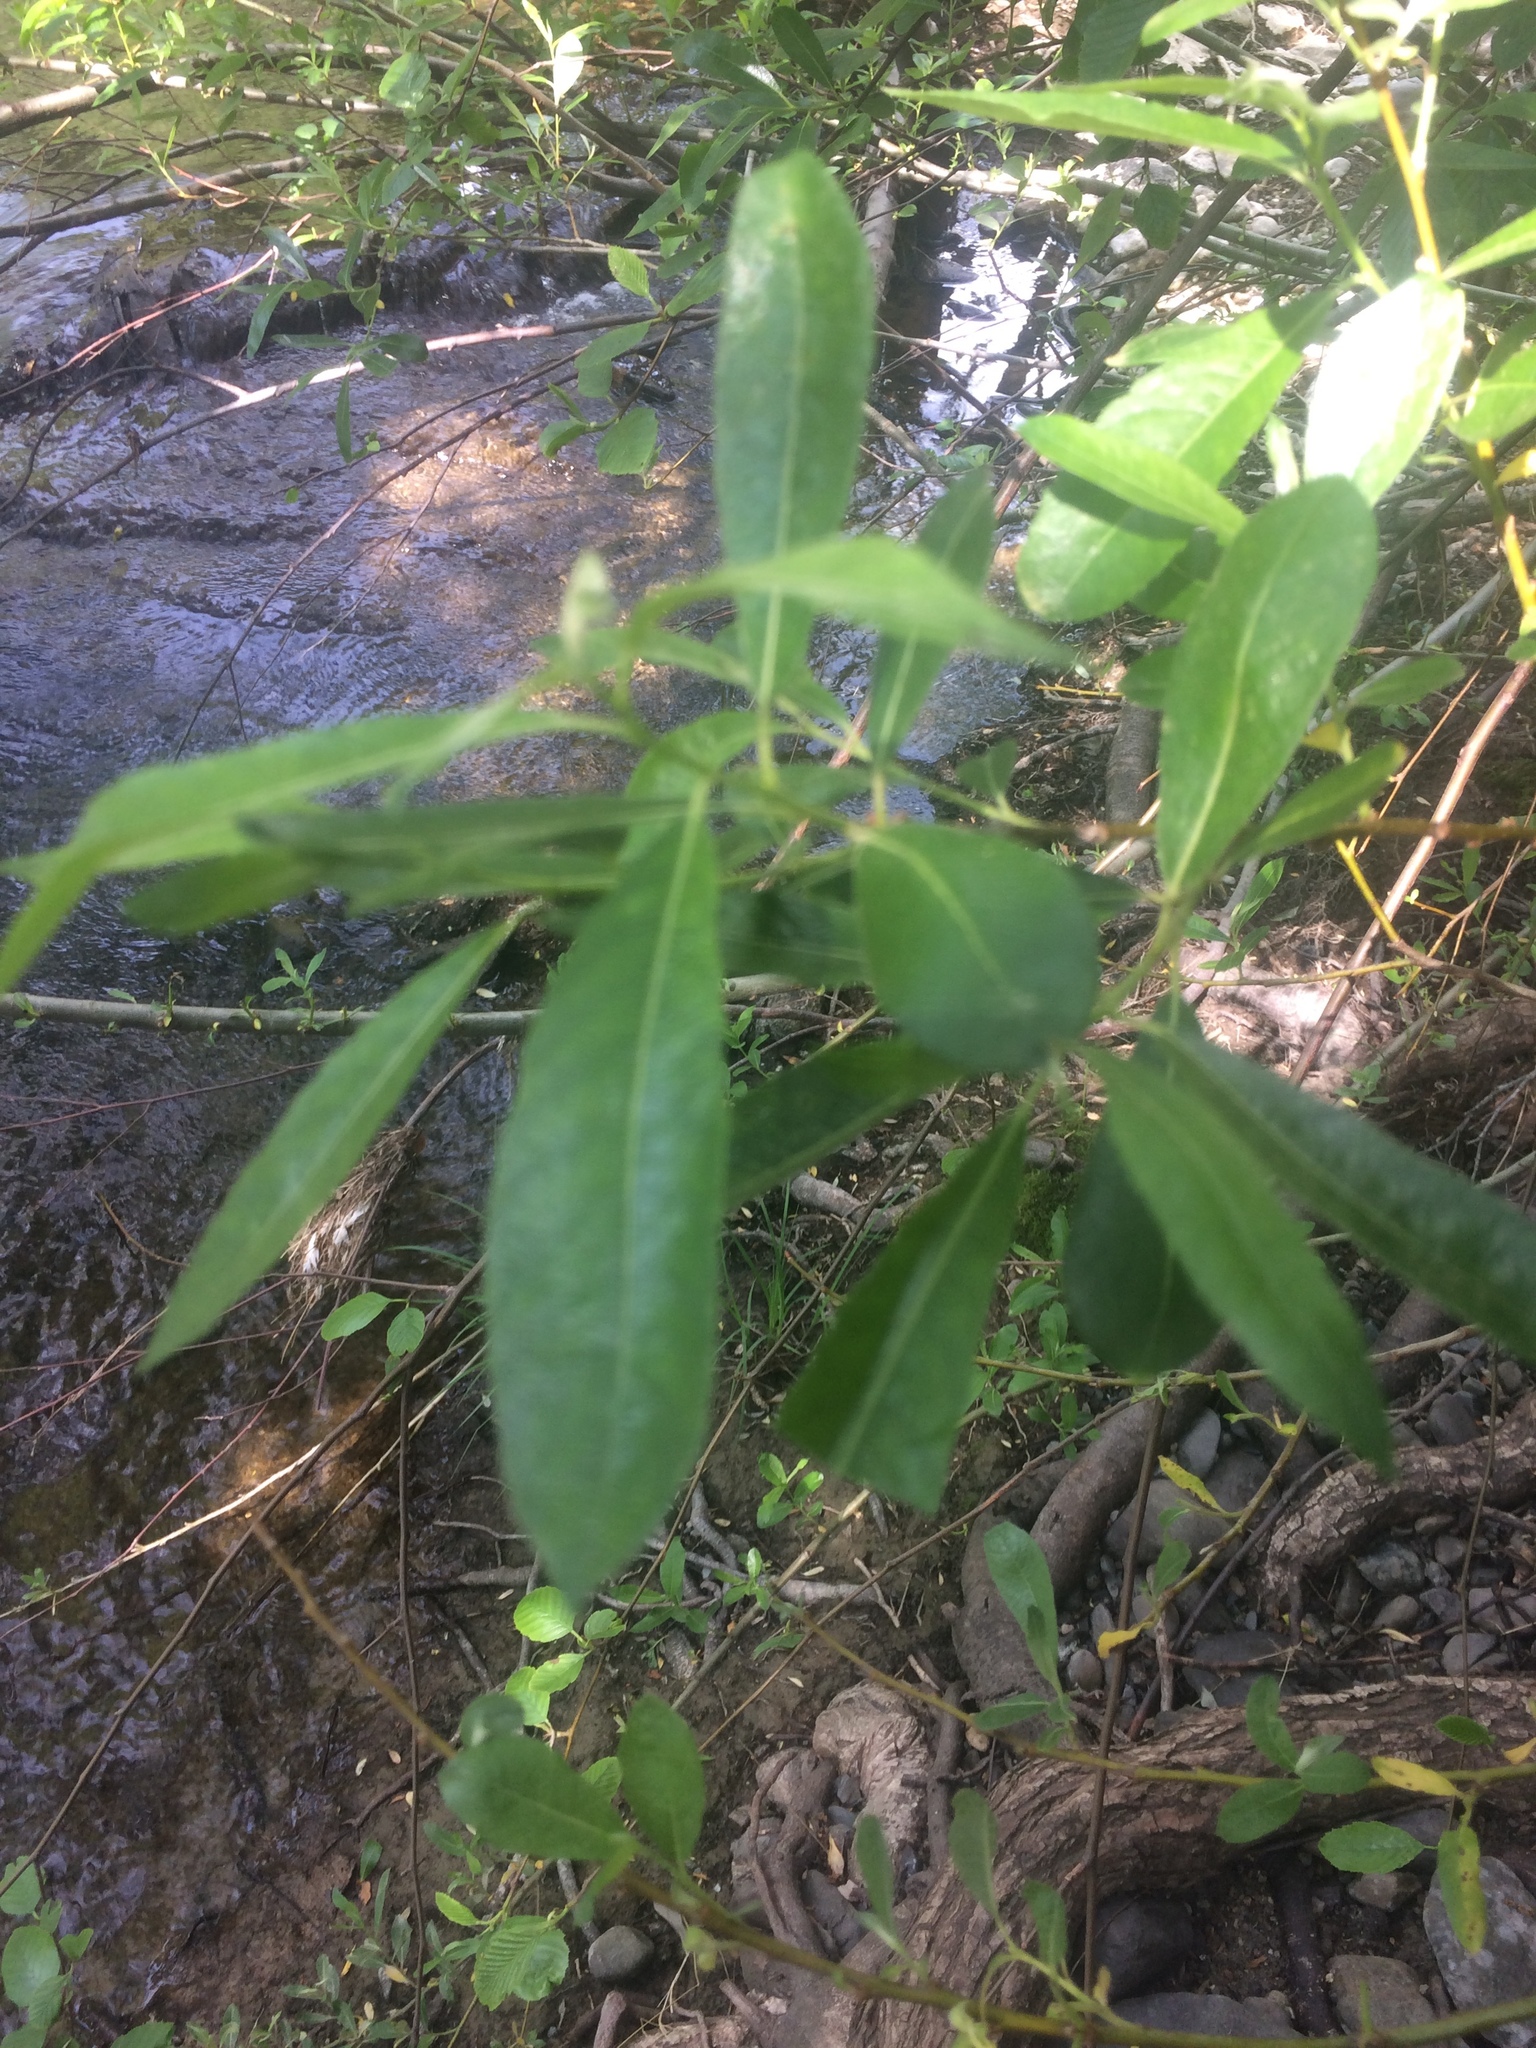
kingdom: Plantae
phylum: Tracheophyta
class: Magnoliopsida
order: Malpighiales
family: Salicaceae
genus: Salix
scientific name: Salix
